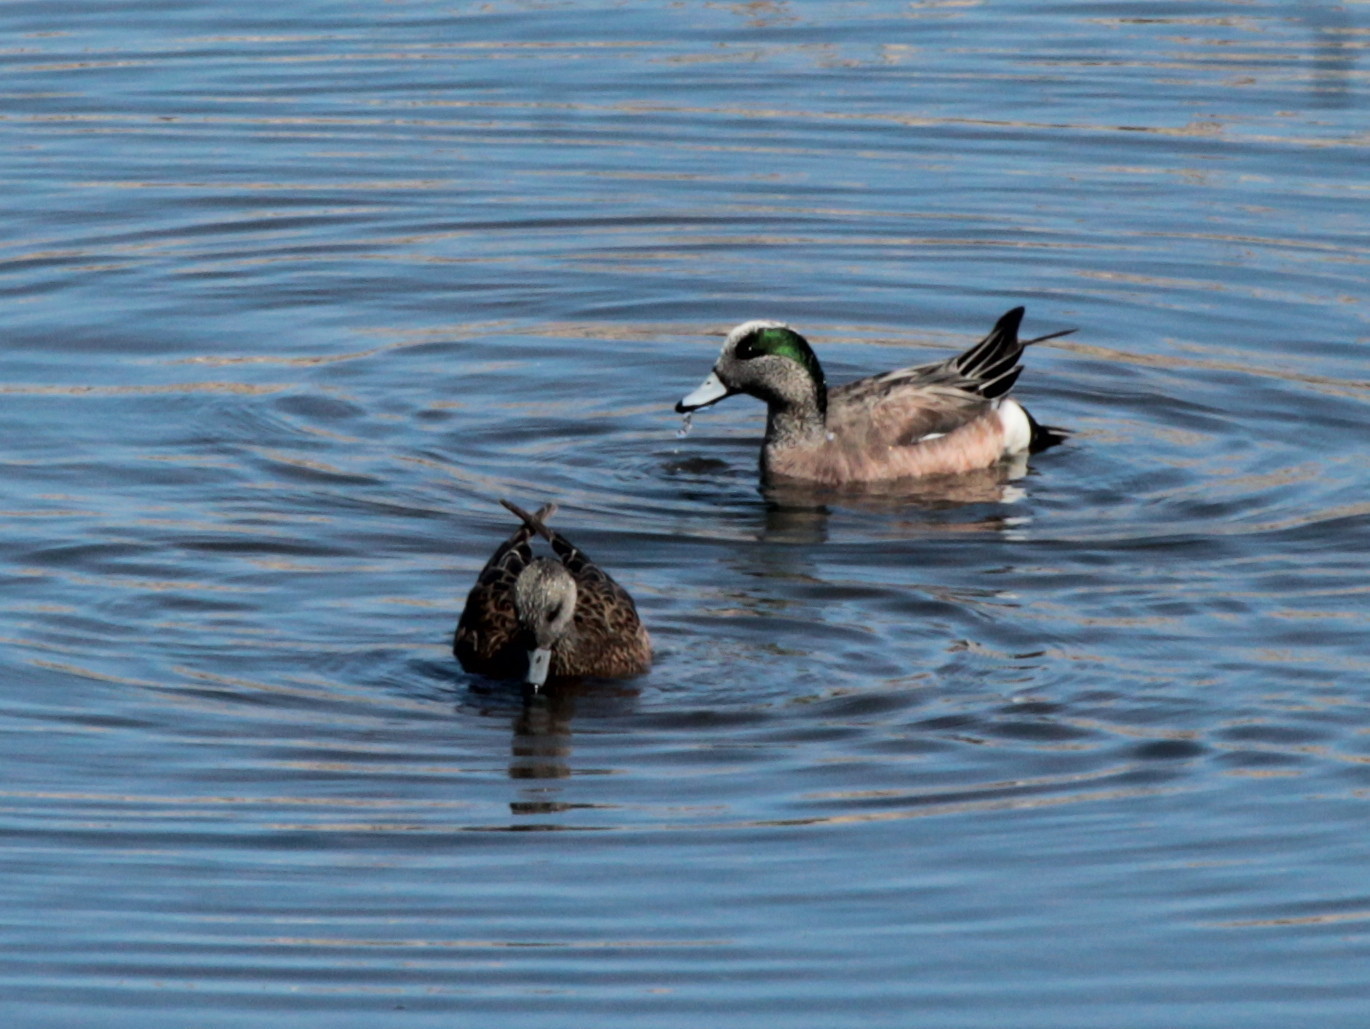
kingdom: Animalia
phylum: Chordata
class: Aves
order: Anseriformes
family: Anatidae
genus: Mareca
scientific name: Mareca americana
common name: American wigeon
